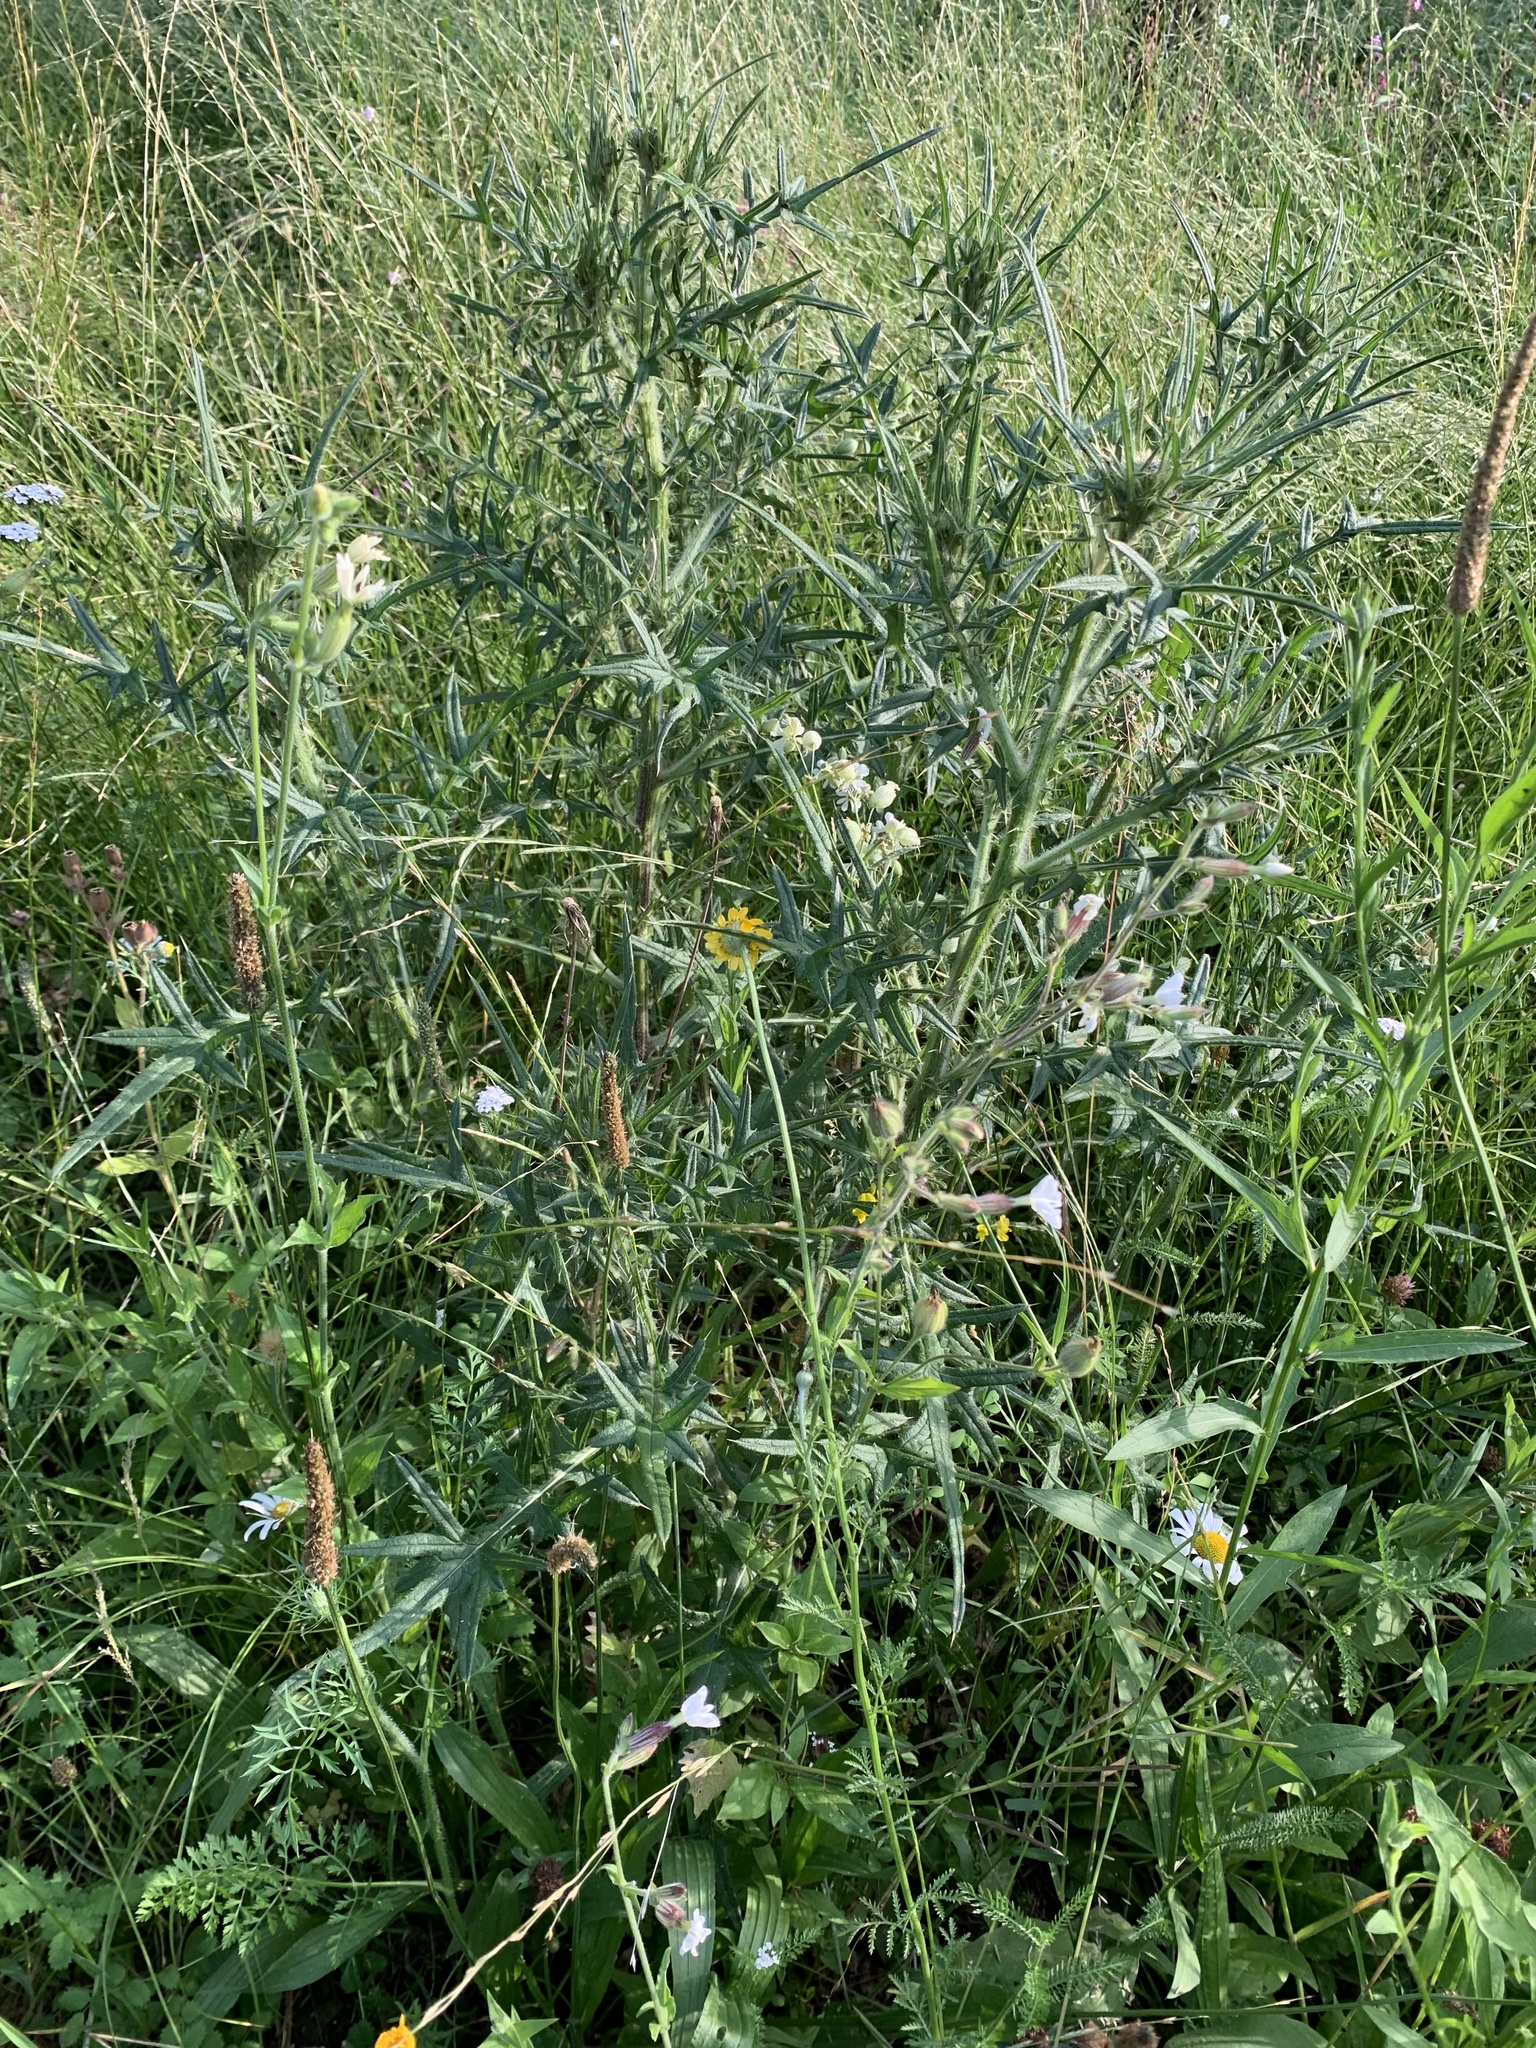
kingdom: Plantae
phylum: Tracheophyta
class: Magnoliopsida
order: Asterales
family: Asteraceae
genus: Cirsium
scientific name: Cirsium vulgare
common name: Bull thistle
